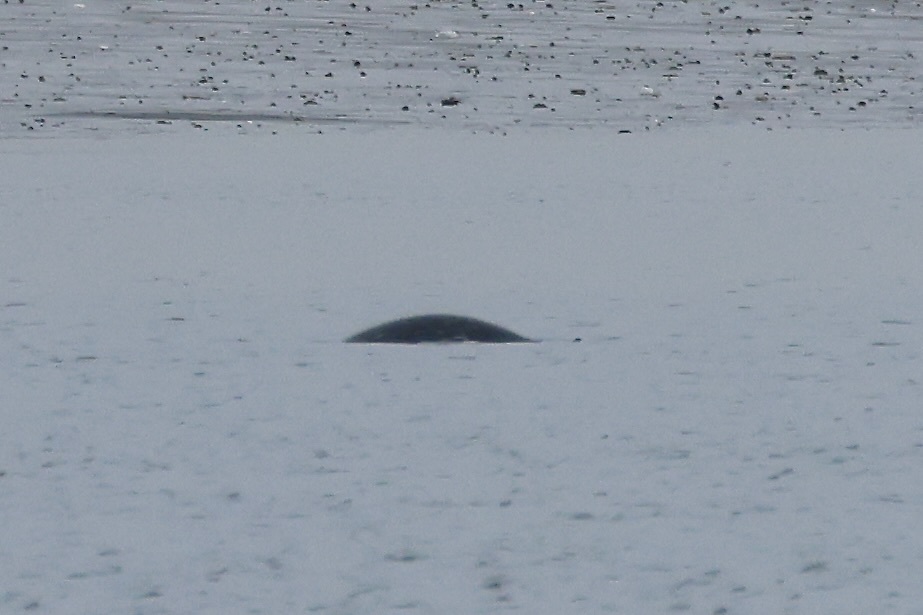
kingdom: Animalia
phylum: Chordata
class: Mammalia
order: Carnivora
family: Phocidae
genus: Phoca
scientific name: Phoca vitulina
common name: Harbor seal
